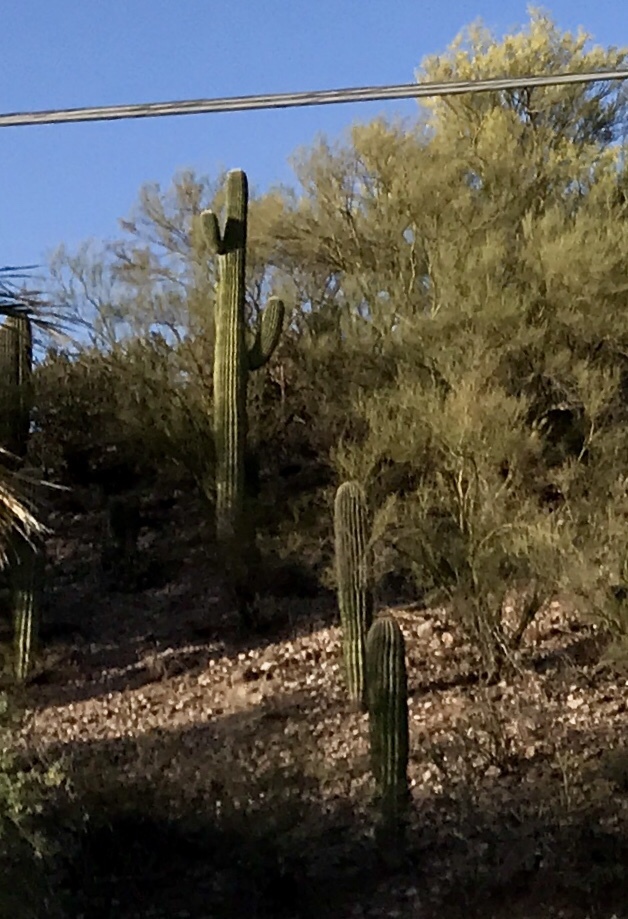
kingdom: Plantae
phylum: Tracheophyta
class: Magnoliopsida
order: Caryophyllales
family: Cactaceae
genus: Carnegiea
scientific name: Carnegiea gigantea
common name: Saguaro
